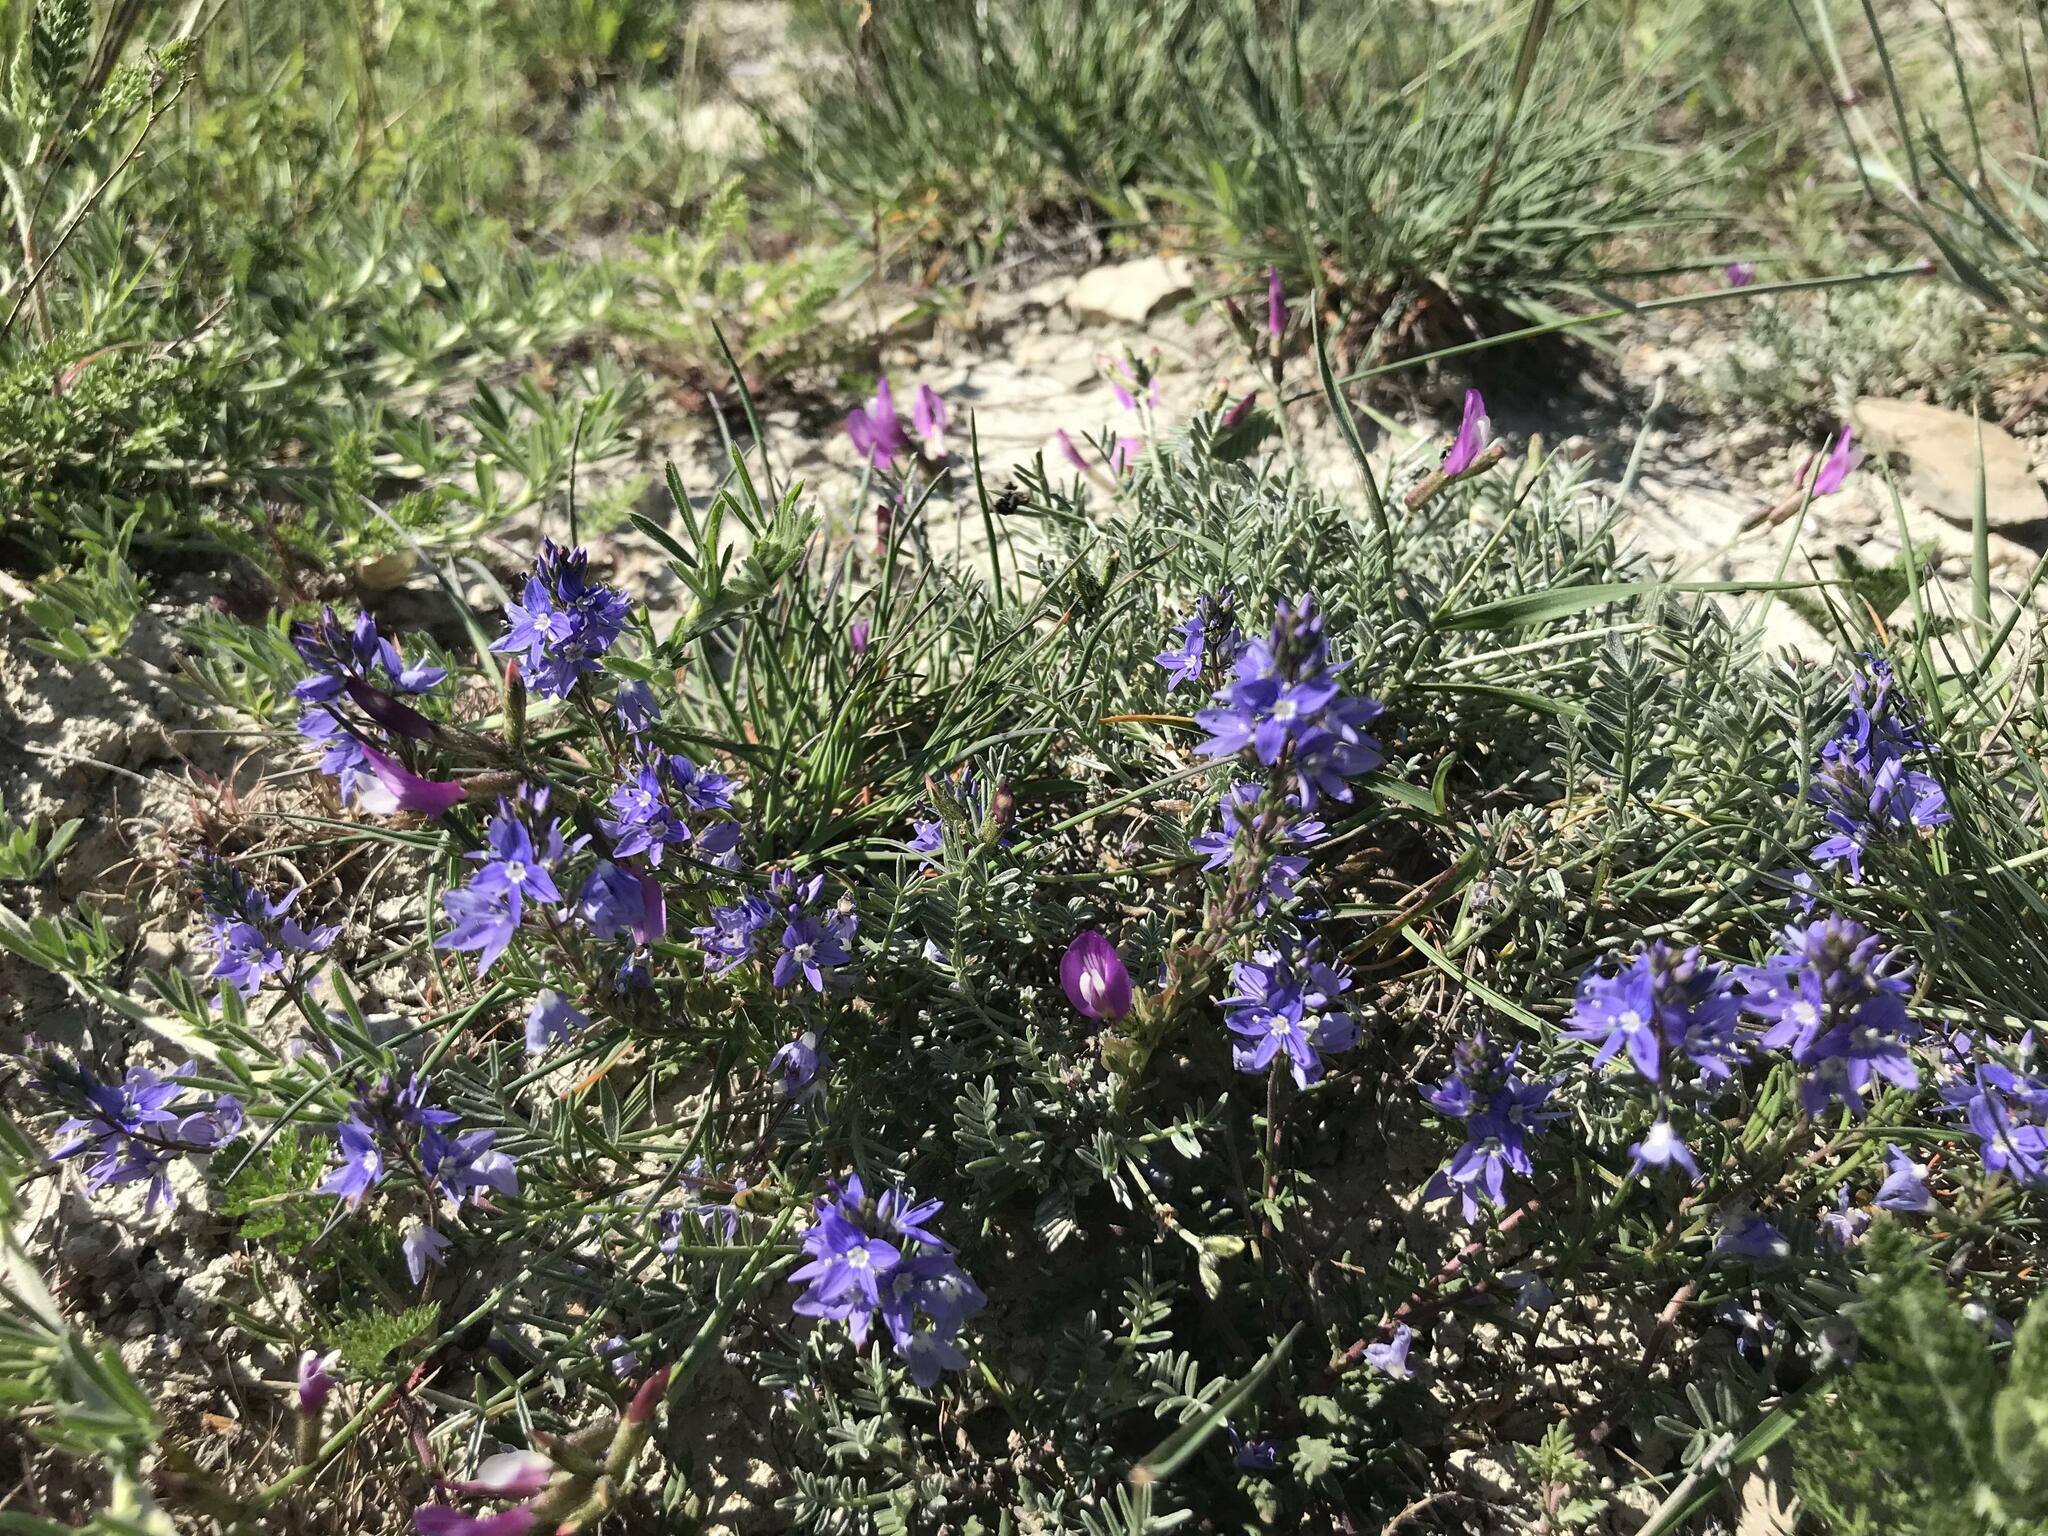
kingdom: Plantae
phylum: Tracheophyta
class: Magnoliopsida
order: Lamiales
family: Plantaginaceae
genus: Veronica
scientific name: Veronica capsellicarpa
